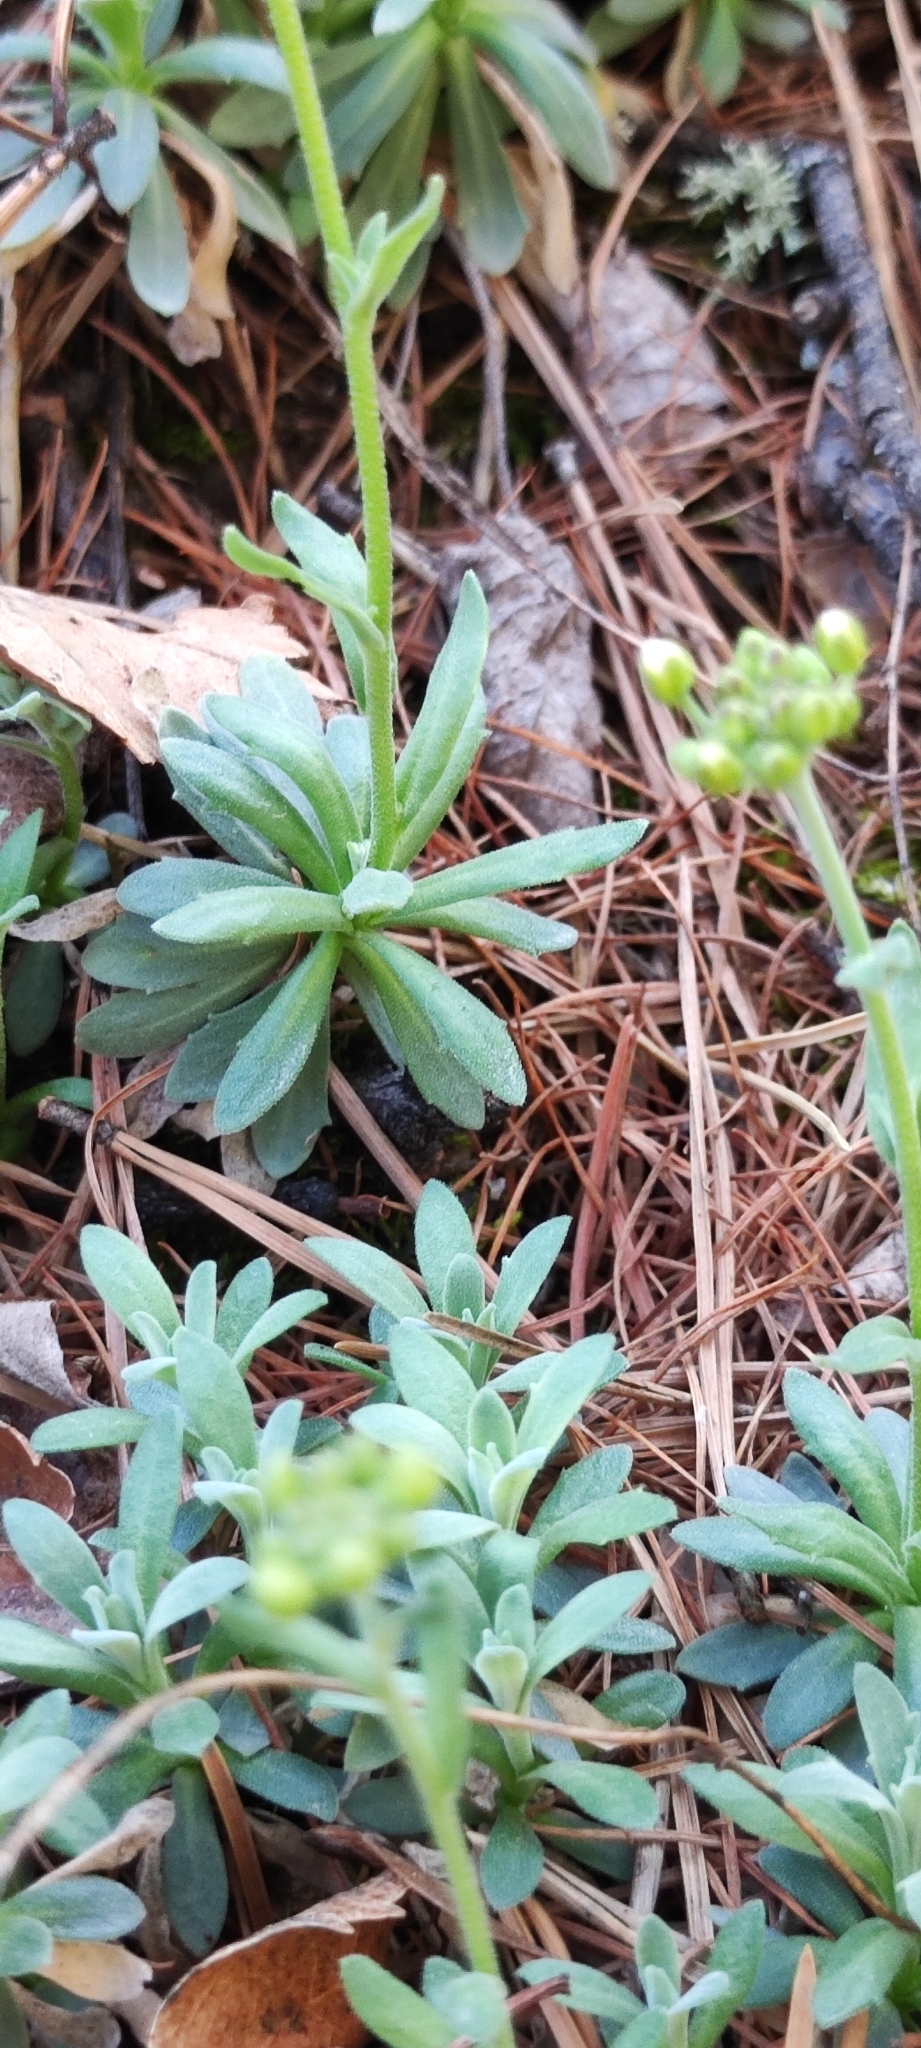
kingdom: Plantae
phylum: Tracheophyta
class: Magnoliopsida
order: Brassicales
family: Brassicaceae
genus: Draba
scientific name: Draba hyperborea
